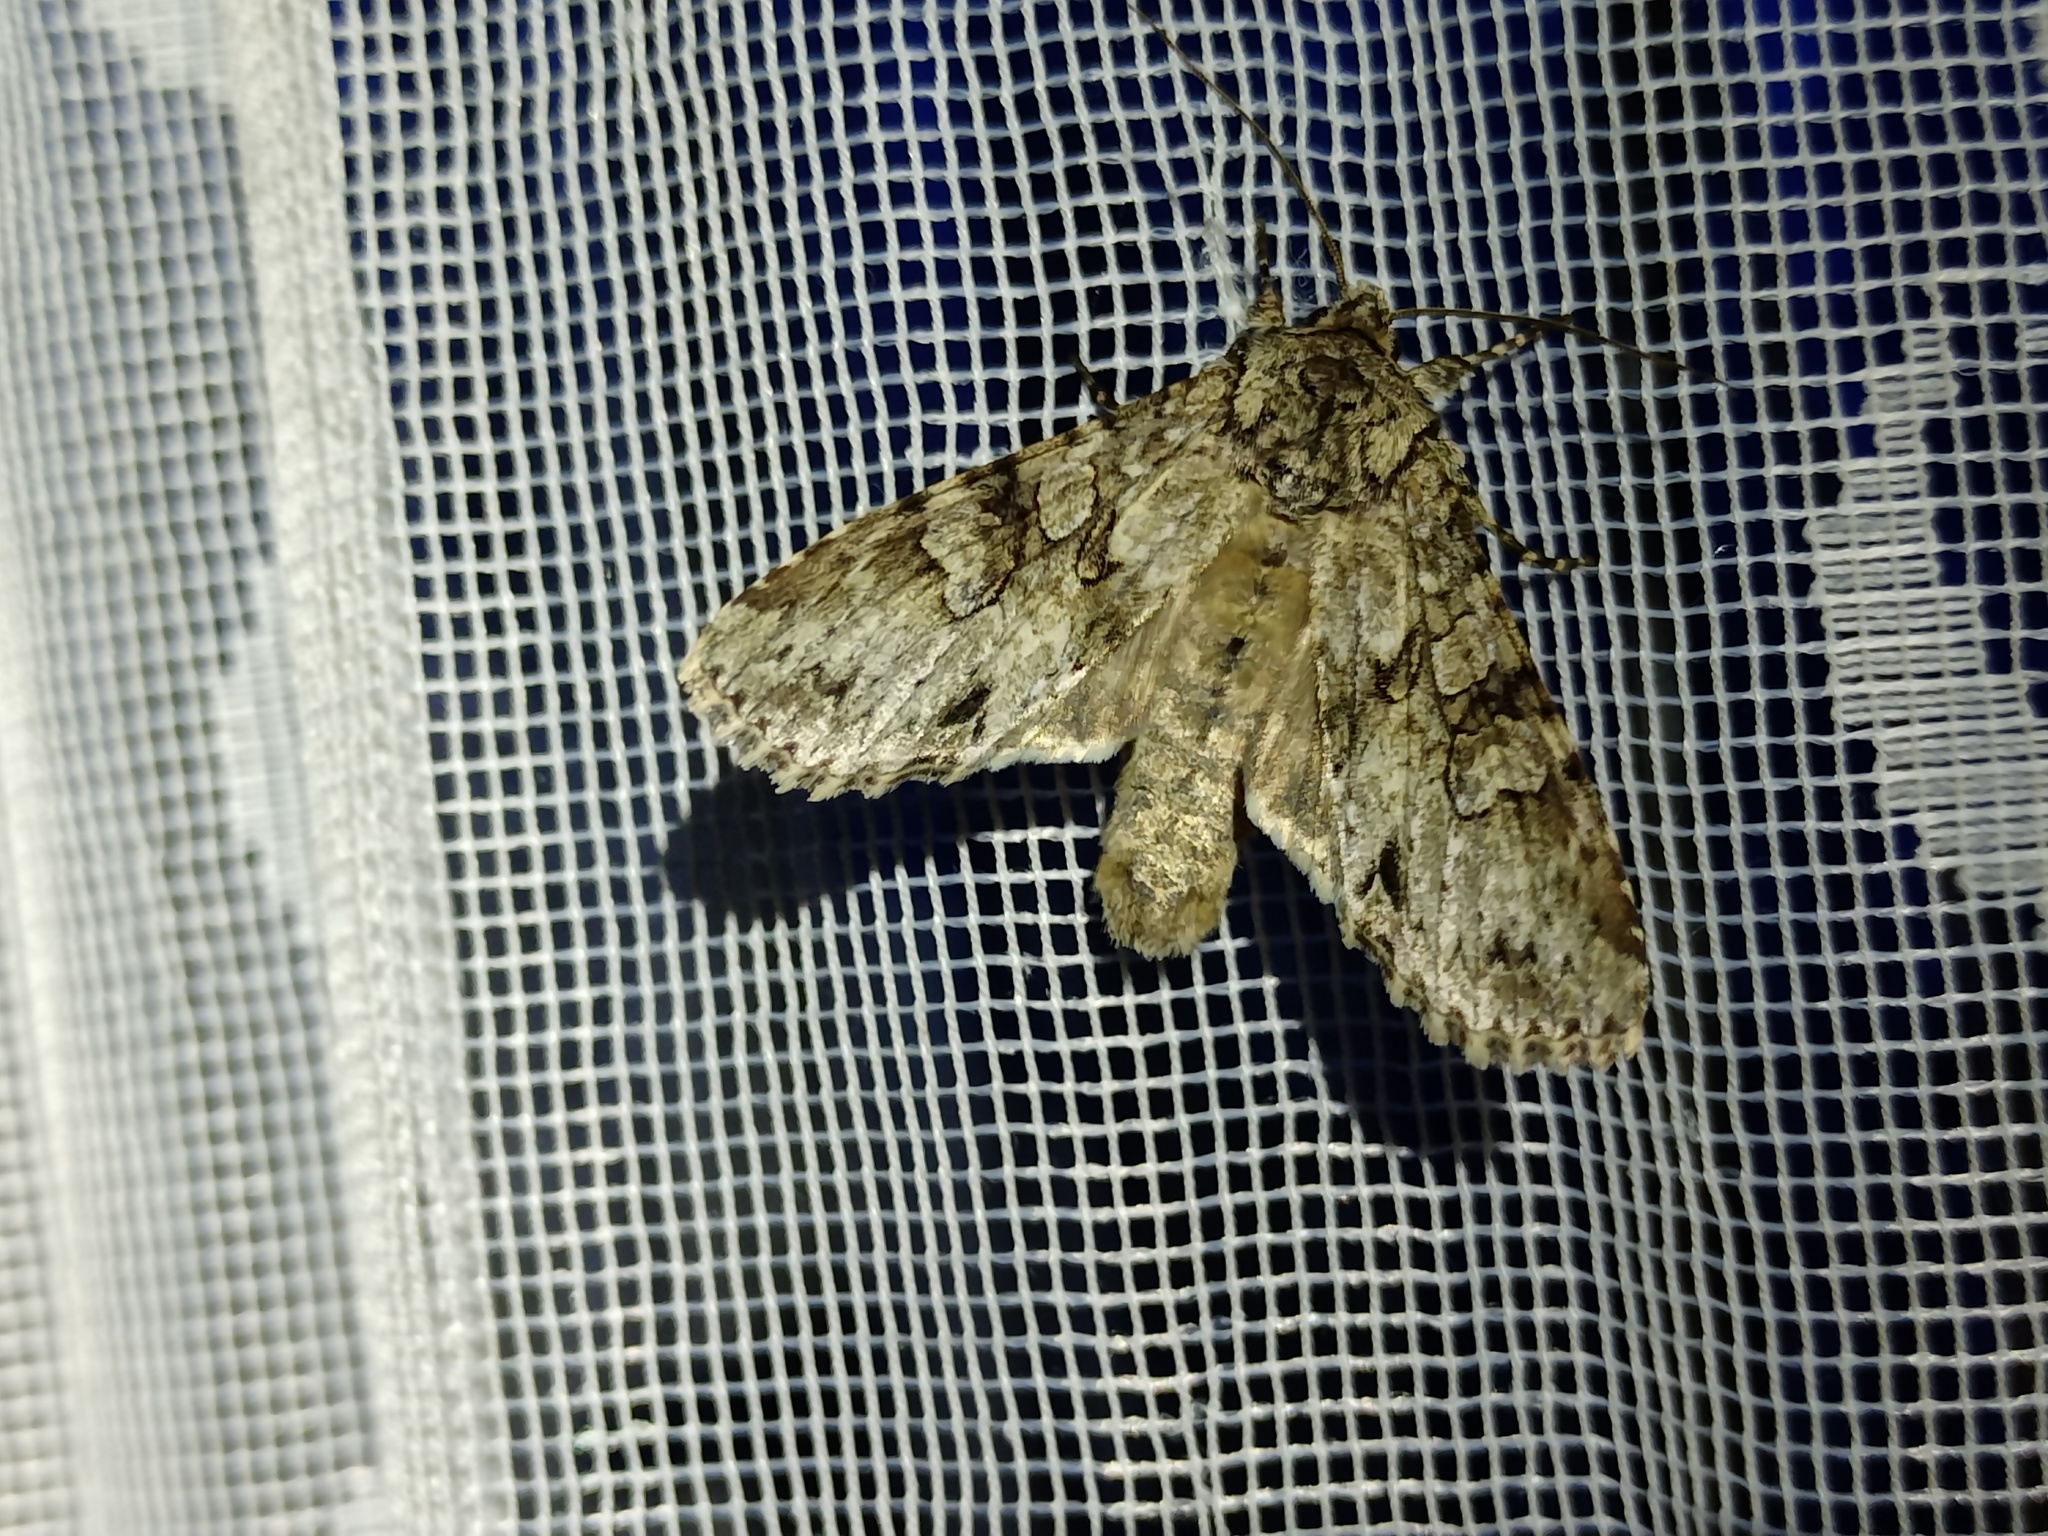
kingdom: Animalia
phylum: Arthropoda
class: Insecta
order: Lepidoptera
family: Noctuidae
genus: Polia
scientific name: Polia nebulosa
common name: Grey arches
